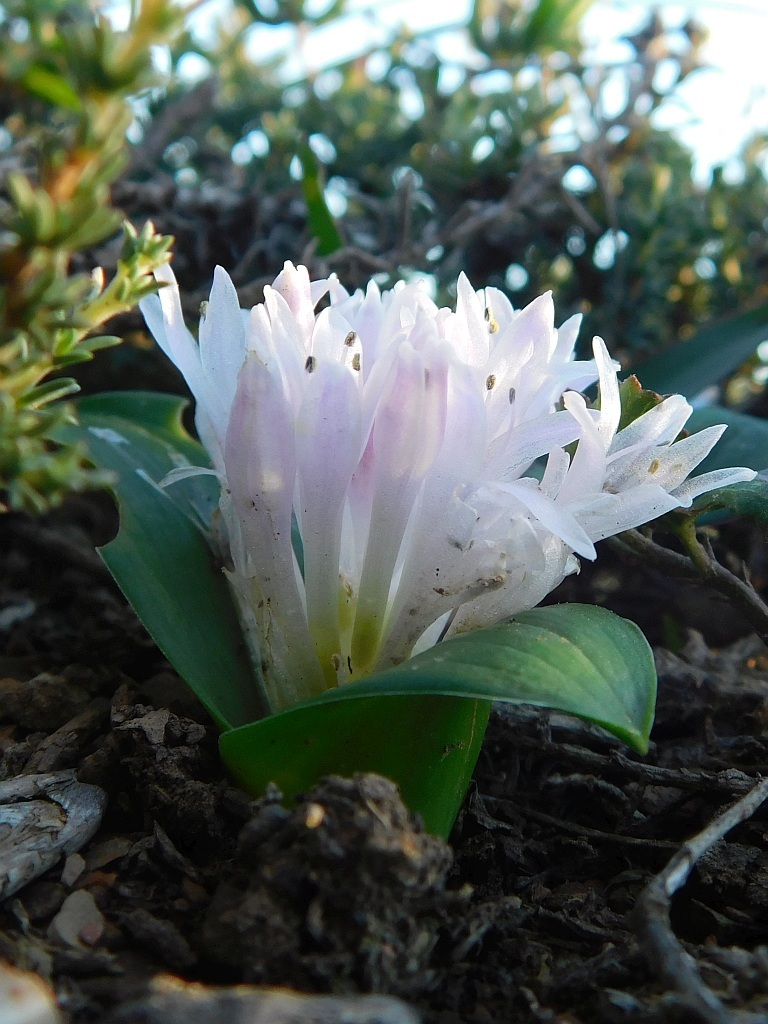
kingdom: Plantae
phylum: Tracheophyta
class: Liliopsida
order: Asparagales
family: Asparagaceae
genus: Lachenalia
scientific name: Lachenalia ensifolia
